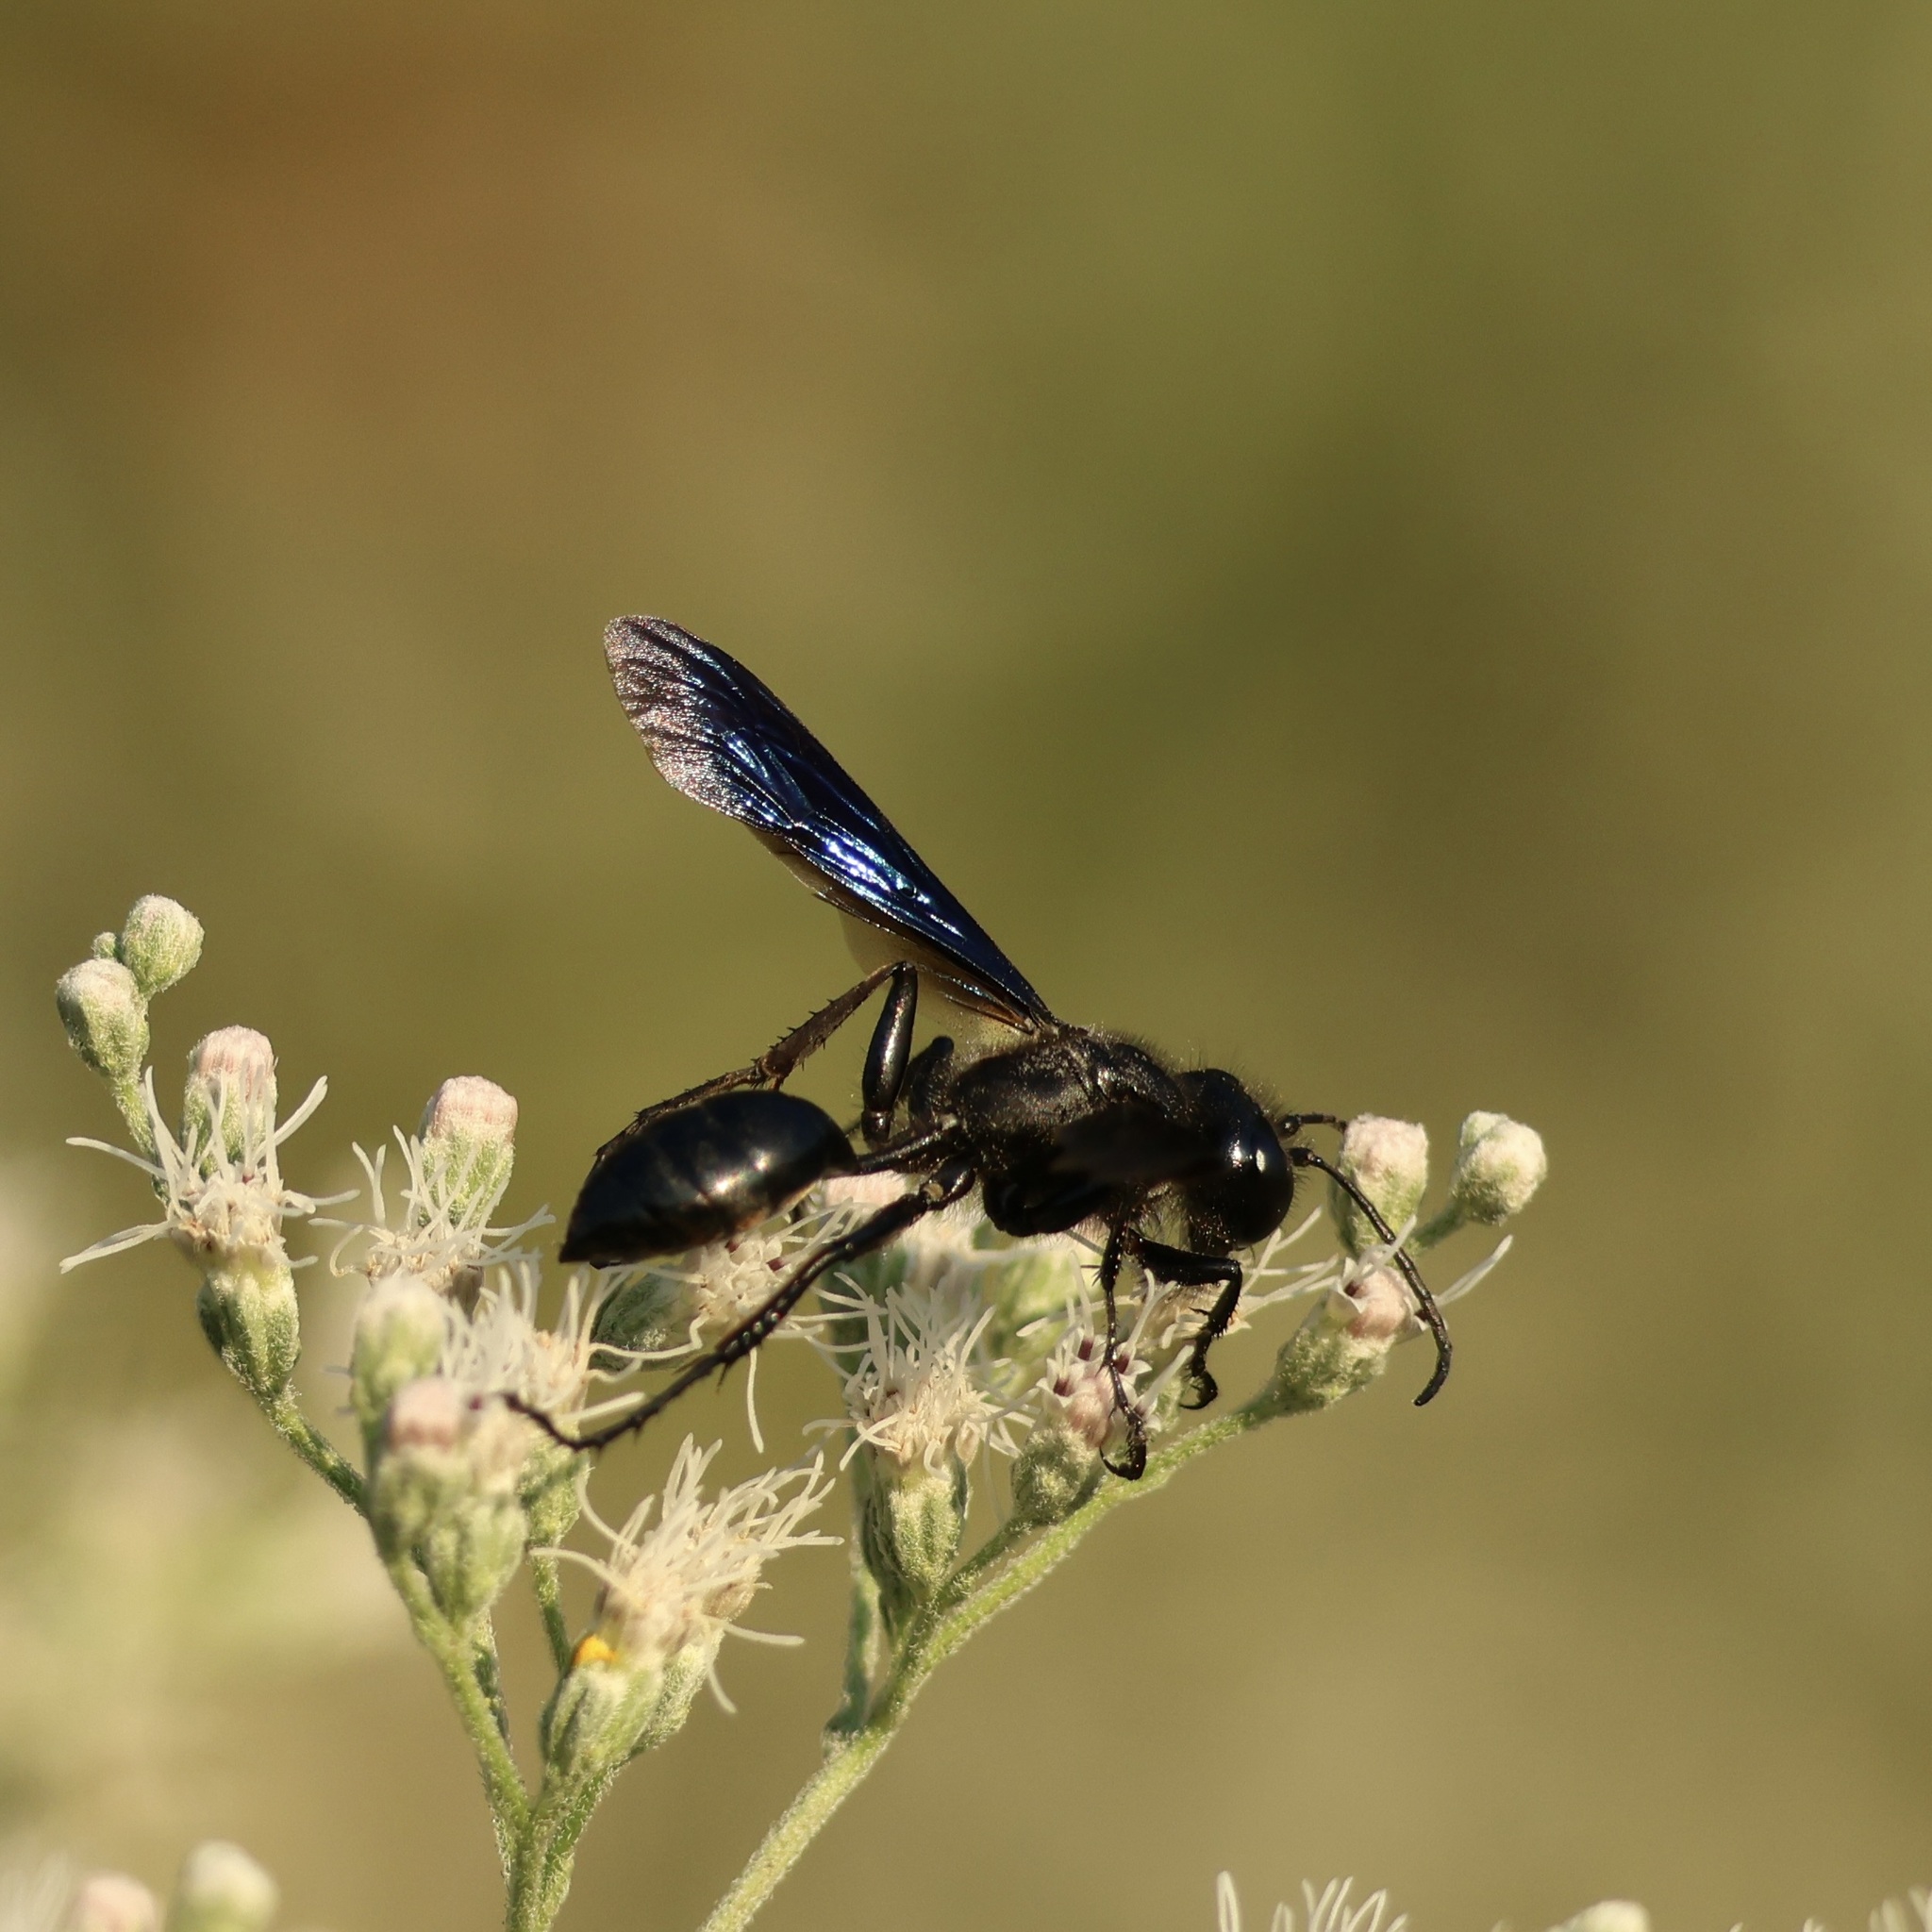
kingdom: Animalia
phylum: Arthropoda
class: Insecta
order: Hymenoptera
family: Sphecidae
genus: Isodontia
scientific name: Isodontia philadelphica
